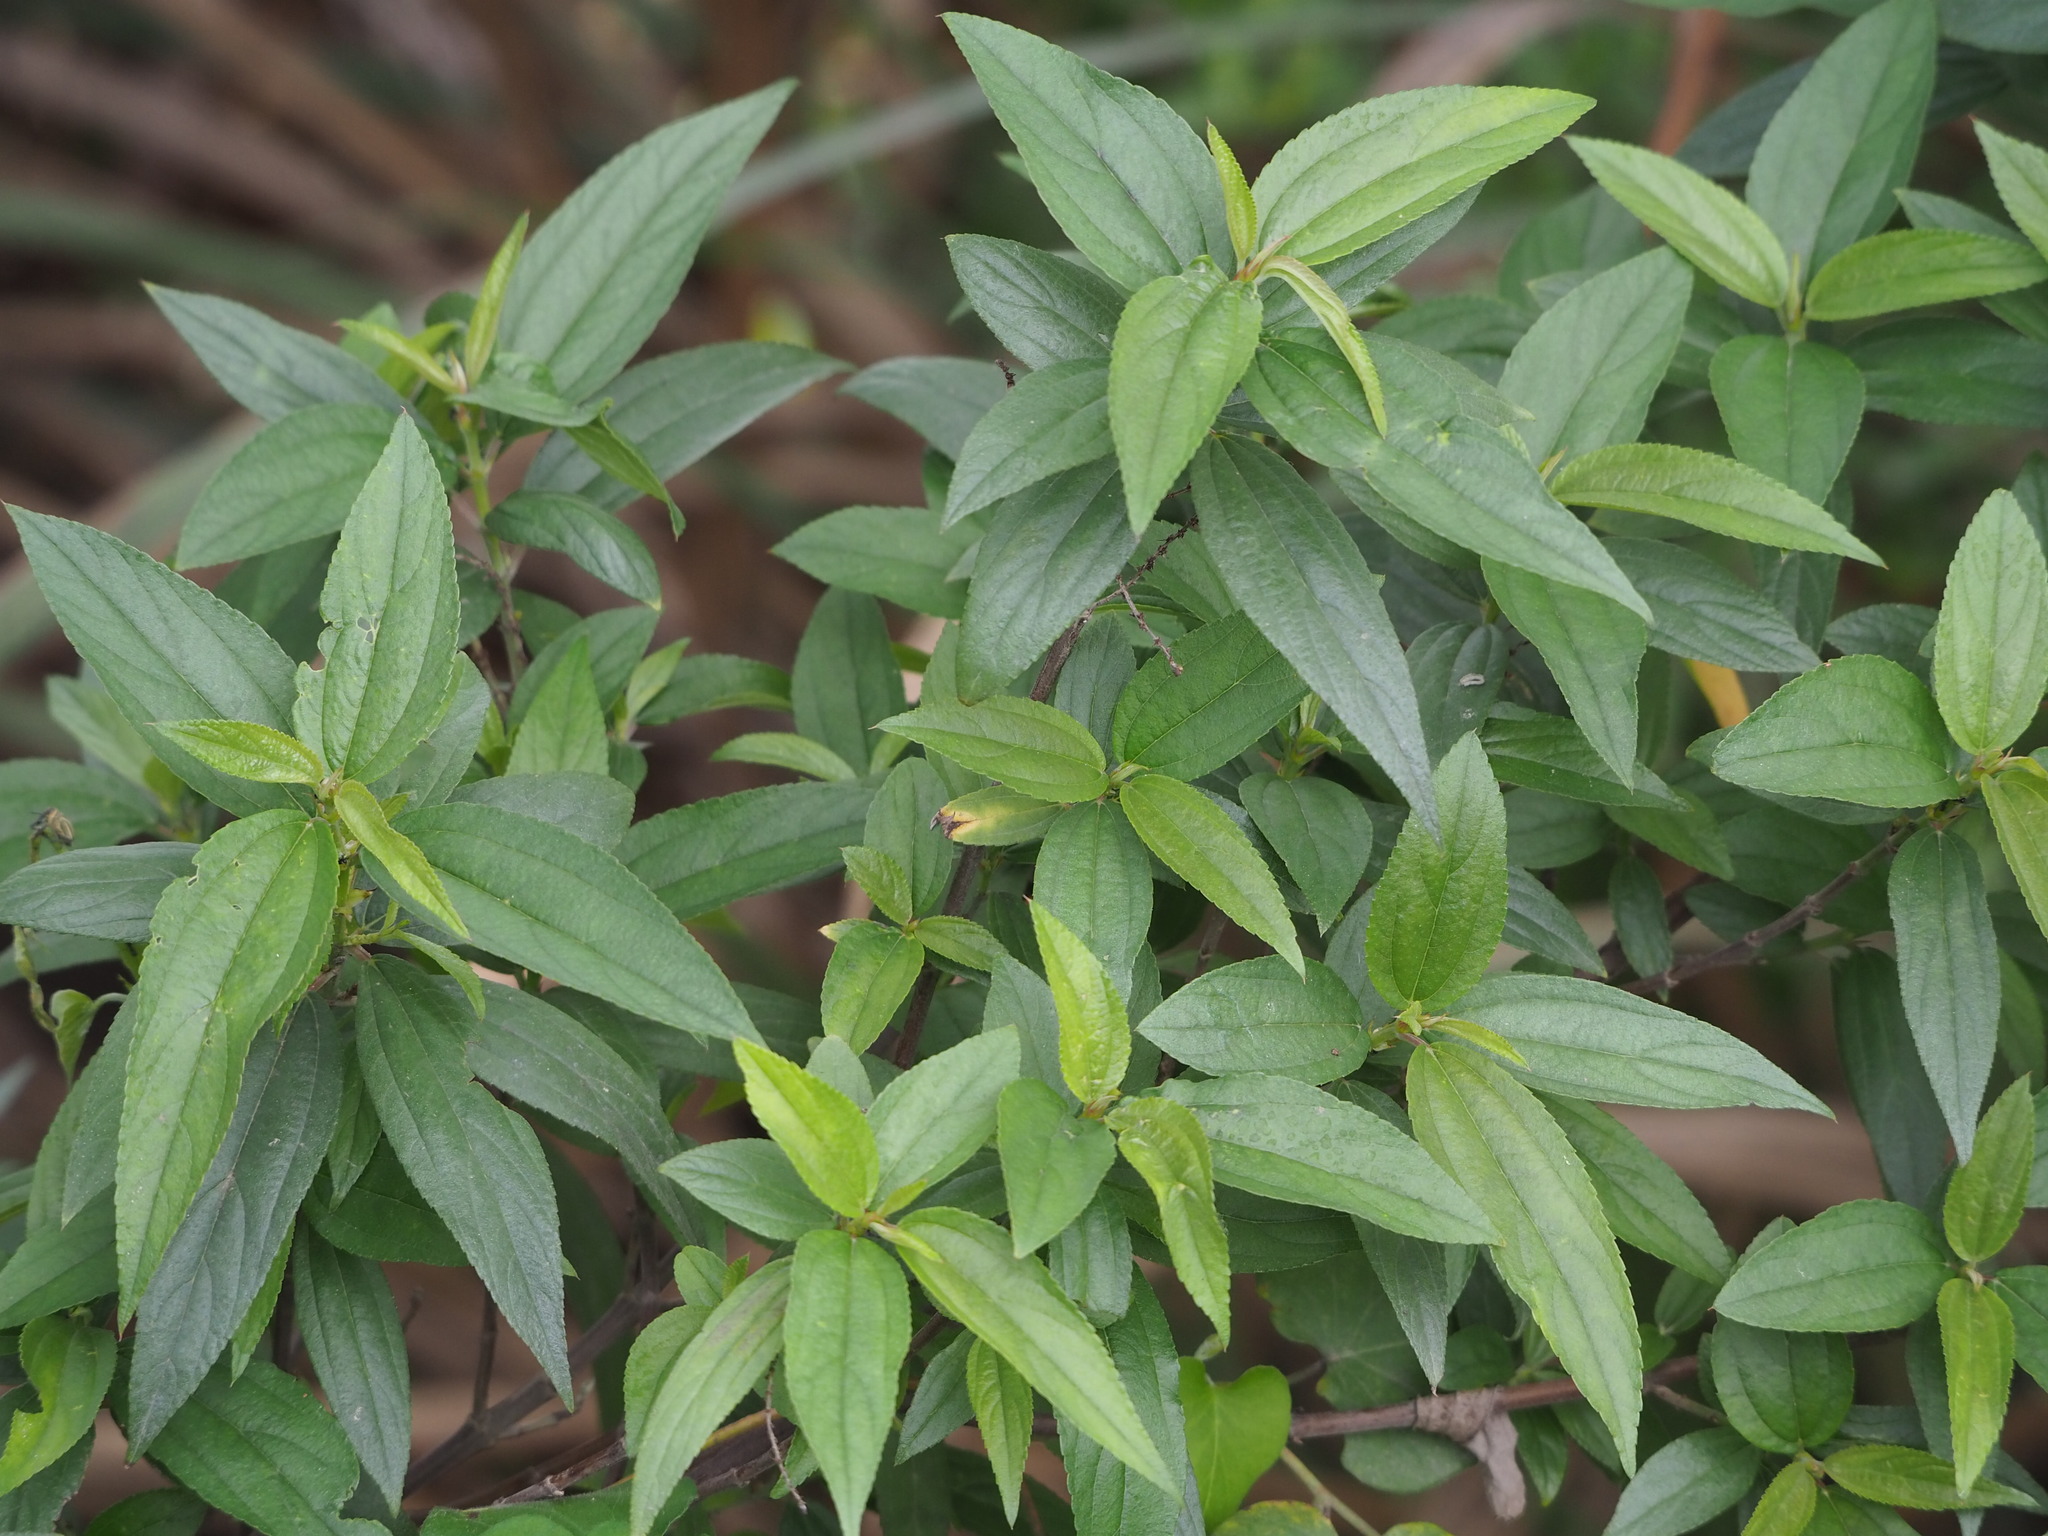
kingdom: Plantae
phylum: Tracheophyta
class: Magnoliopsida
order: Rosales
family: Urticaceae
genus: Boehmeria
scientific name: Boehmeria densiflora
